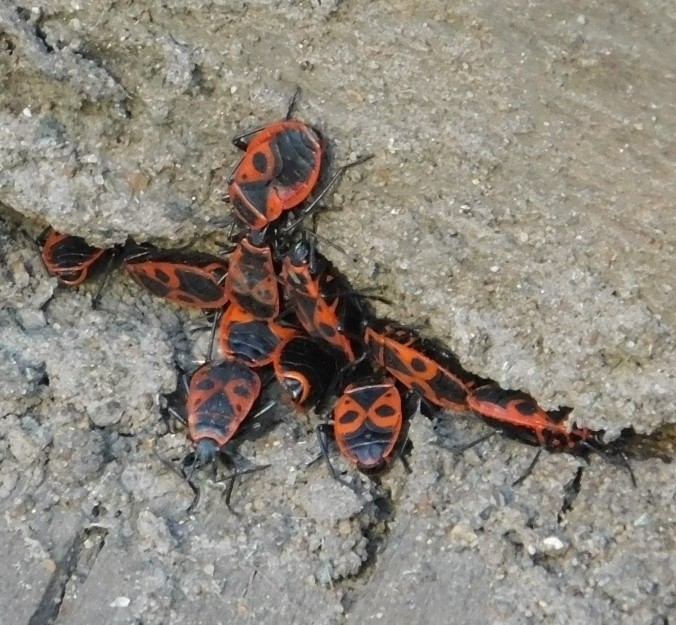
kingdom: Animalia
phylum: Arthropoda
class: Insecta
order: Hemiptera
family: Pyrrhocoridae
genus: Pyrrhocoris
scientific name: Pyrrhocoris apterus
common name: Firebug
